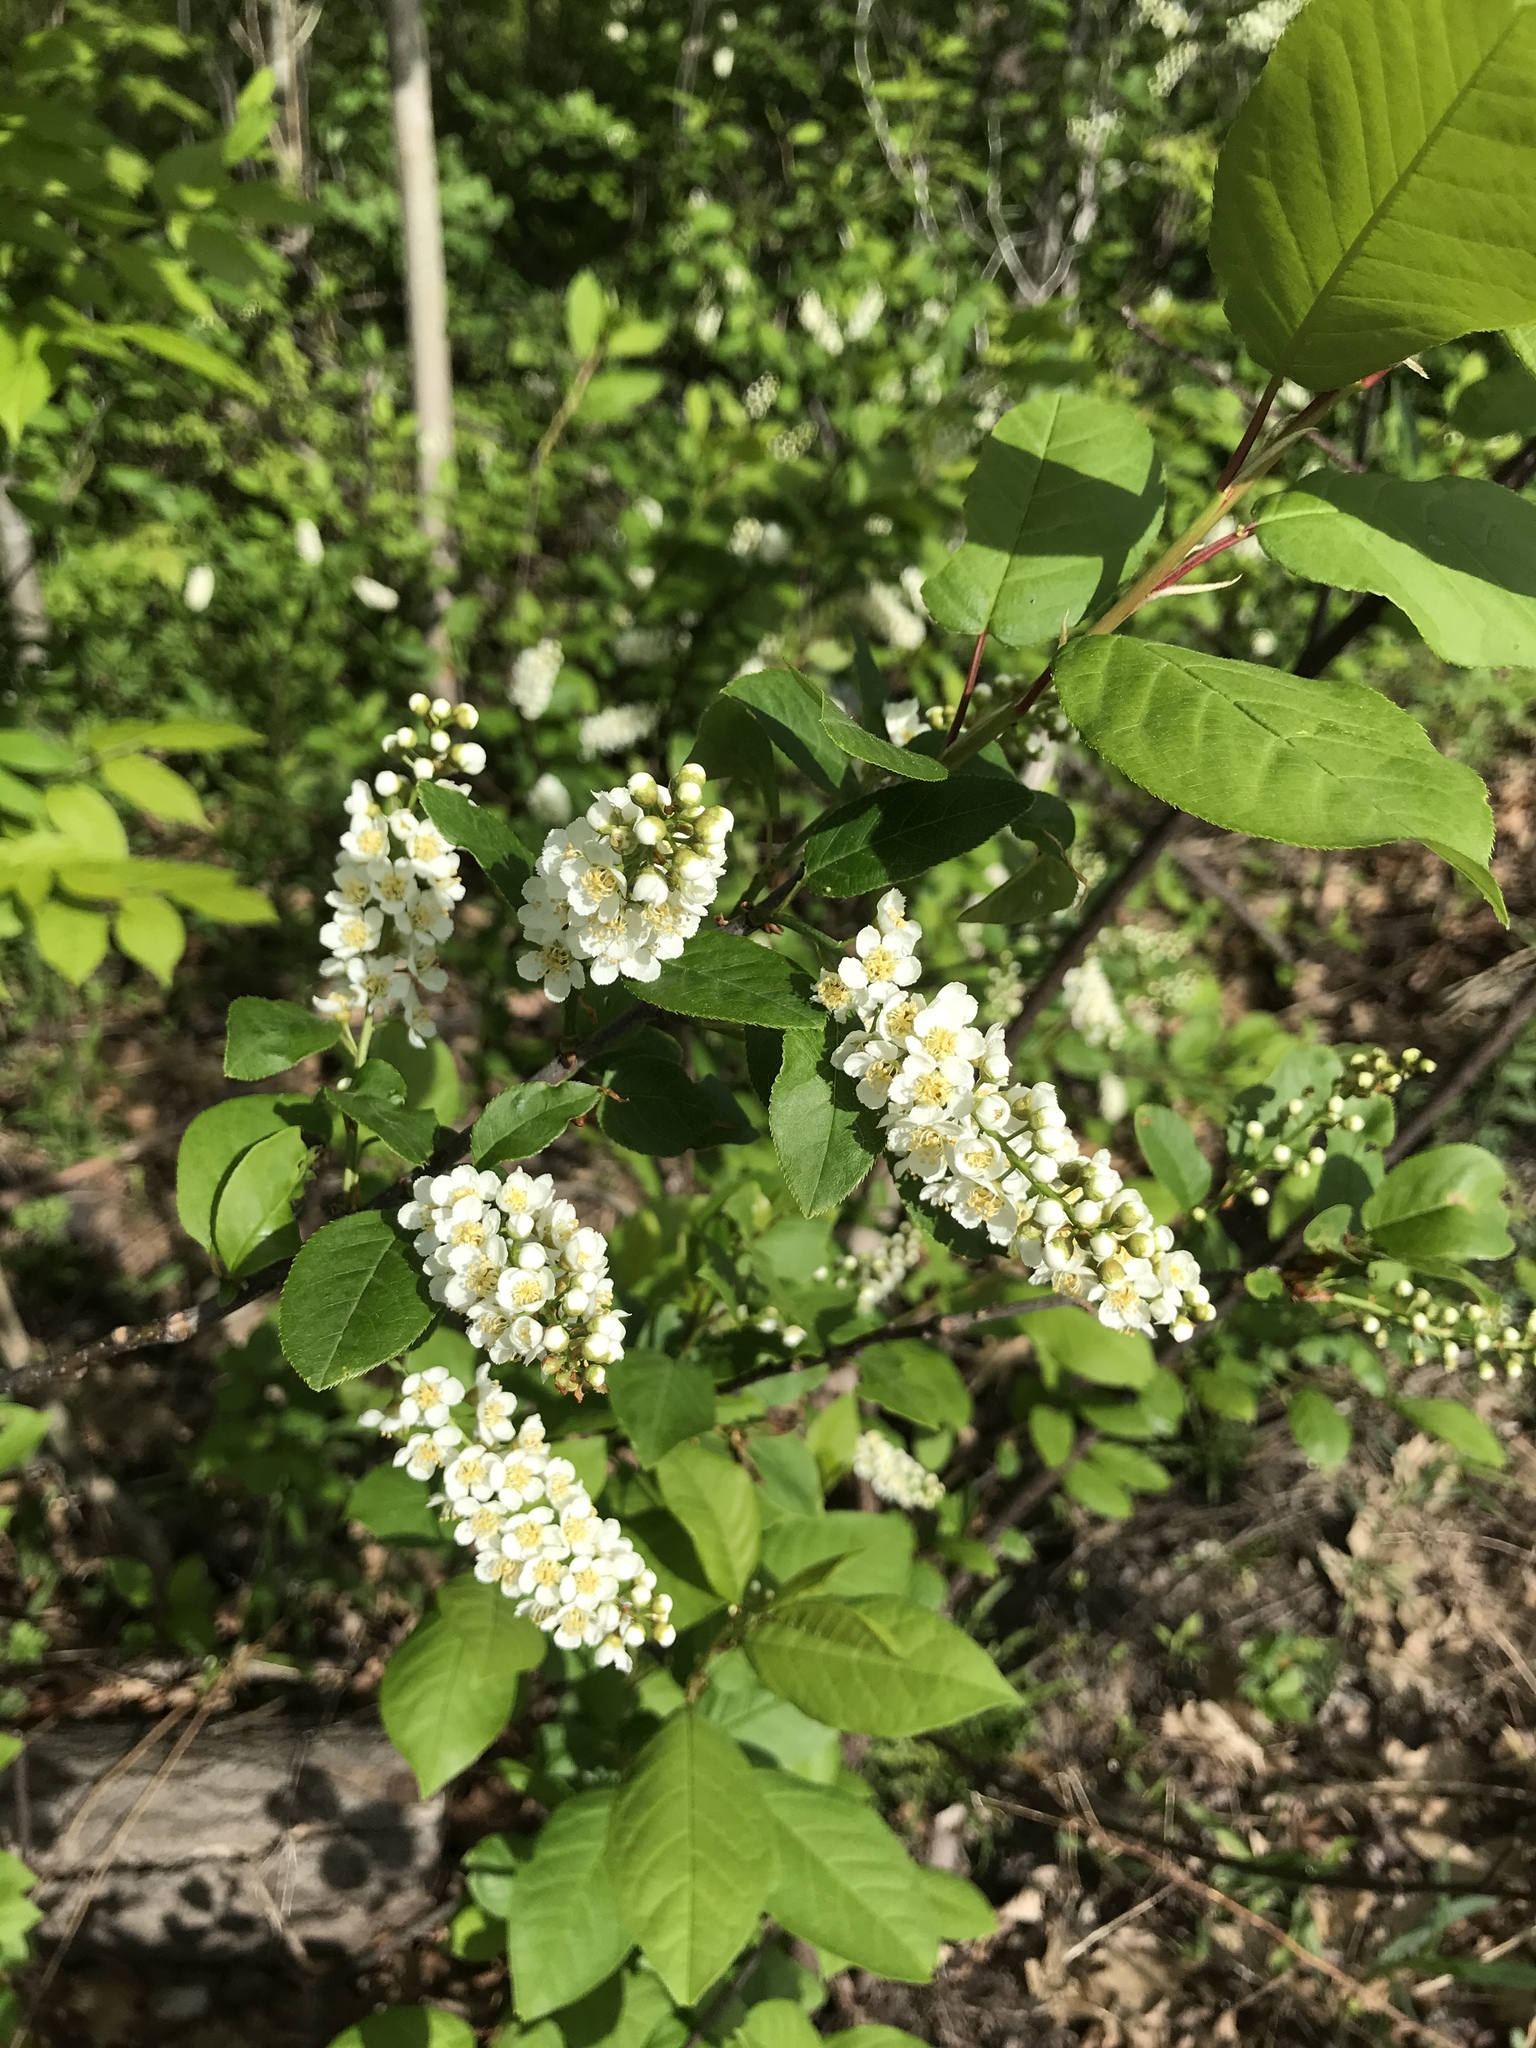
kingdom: Plantae
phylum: Tracheophyta
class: Magnoliopsida
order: Rosales
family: Rosaceae
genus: Prunus
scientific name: Prunus virginiana
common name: Chokecherry
